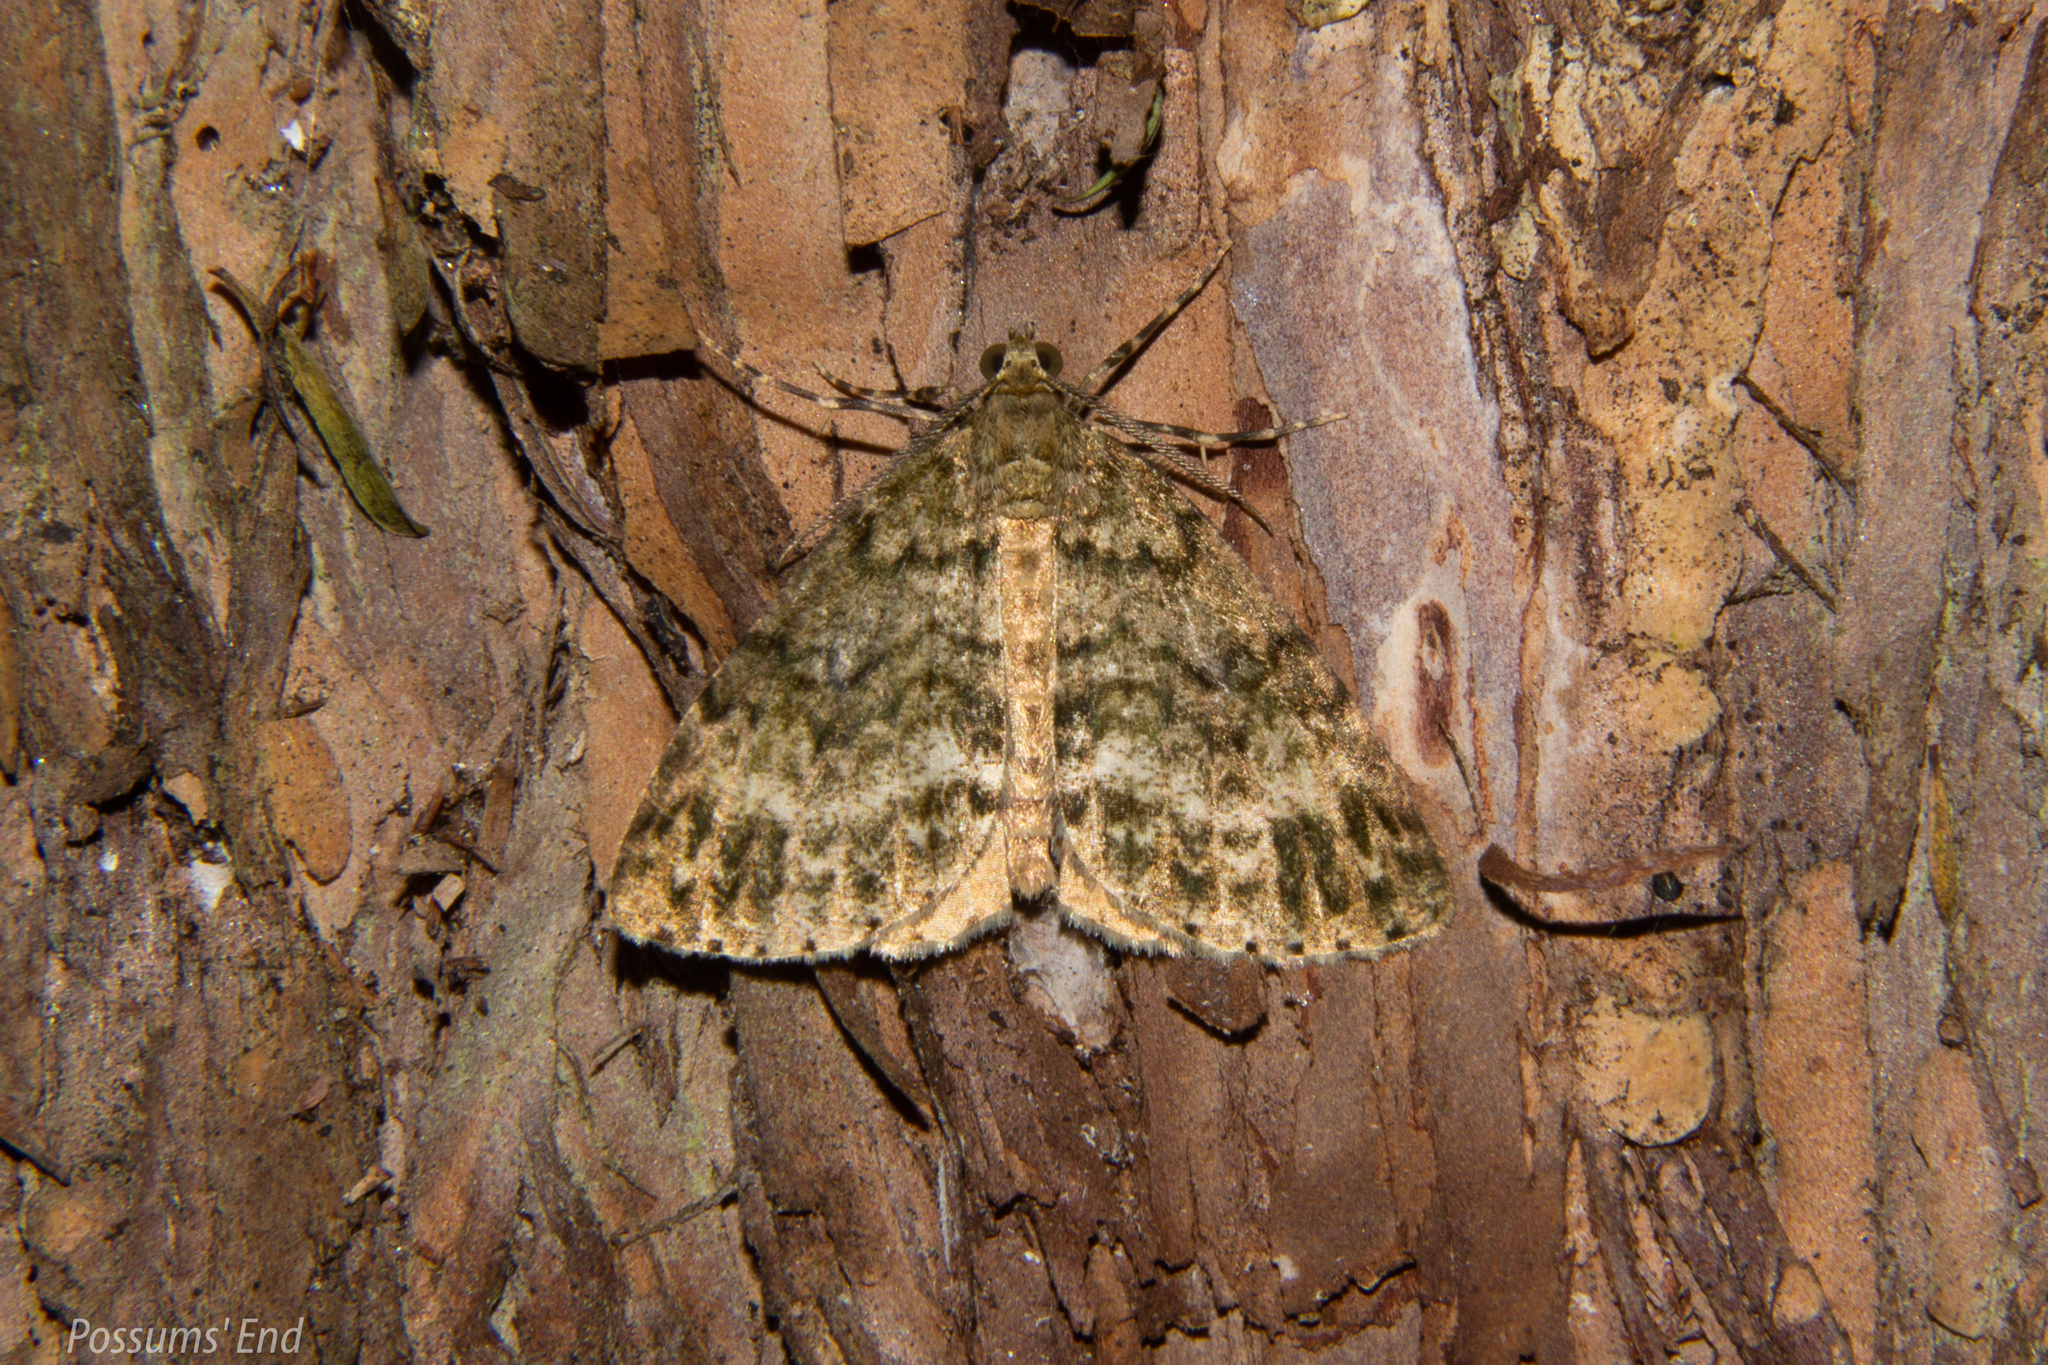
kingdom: Animalia
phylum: Arthropoda
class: Insecta
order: Lepidoptera
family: Geometridae
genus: Pseudocoremia
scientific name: Pseudocoremia indistincta
